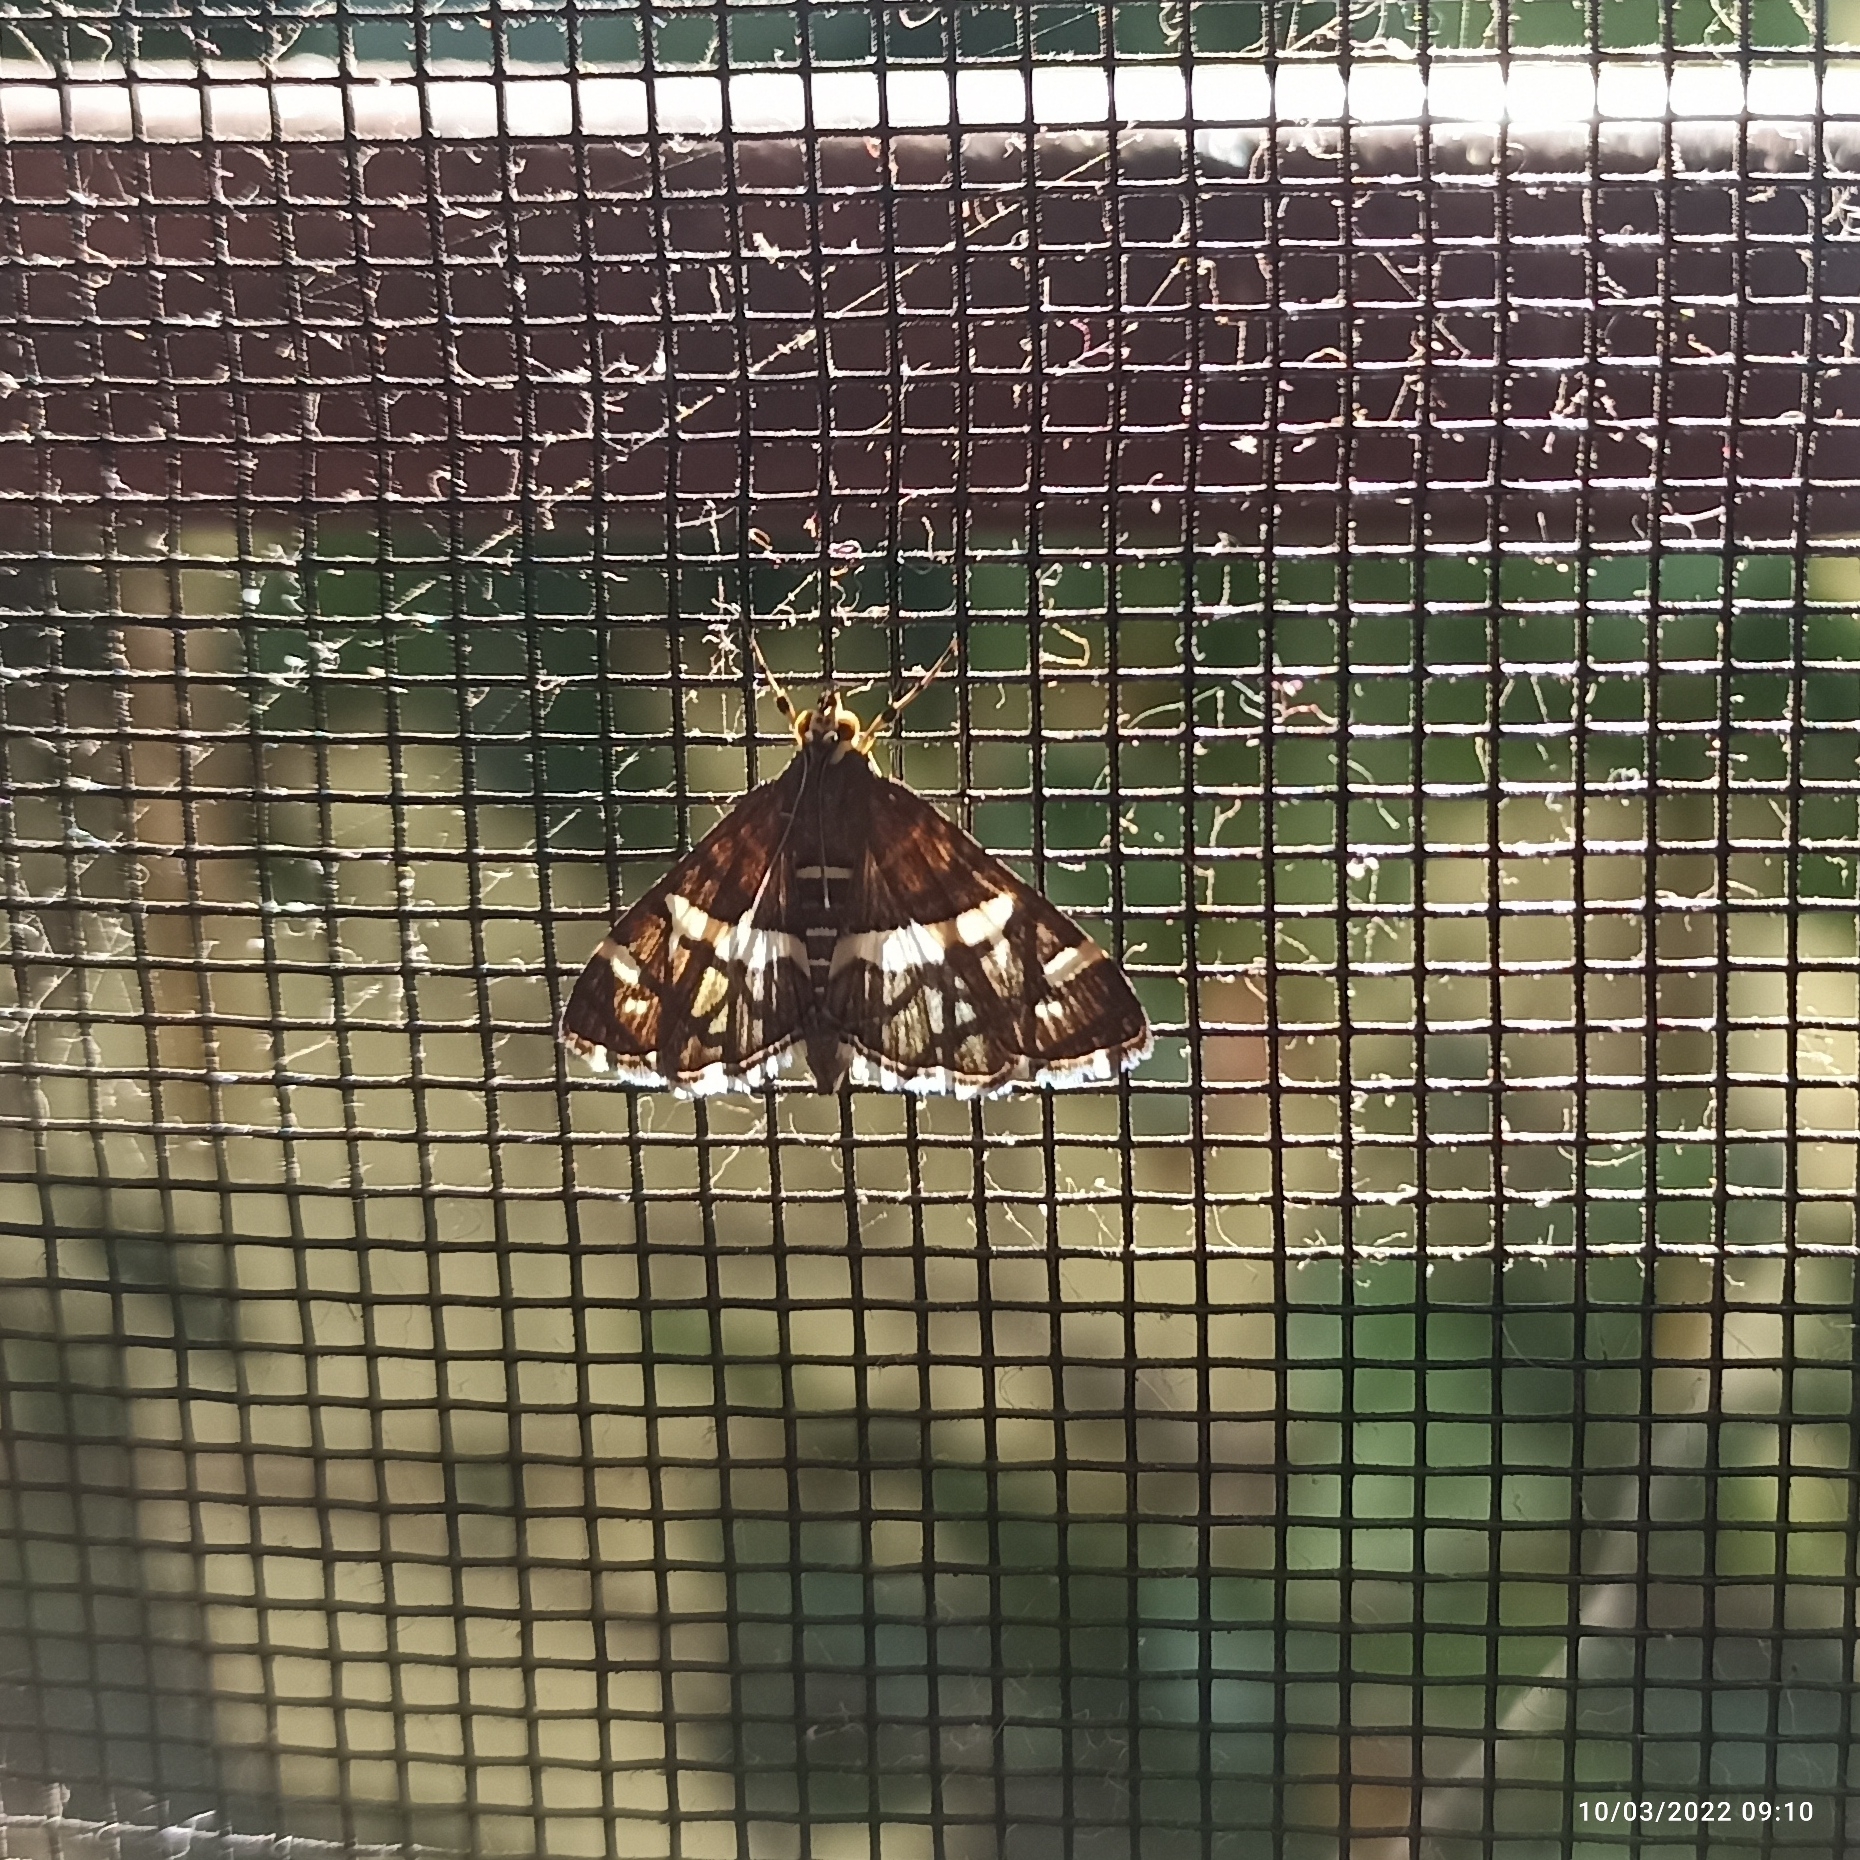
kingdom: Animalia
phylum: Arthropoda
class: Insecta
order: Lepidoptera
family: Crambidae
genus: Spoladea
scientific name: Spoladea recurvalis
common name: Beet webworm moth
